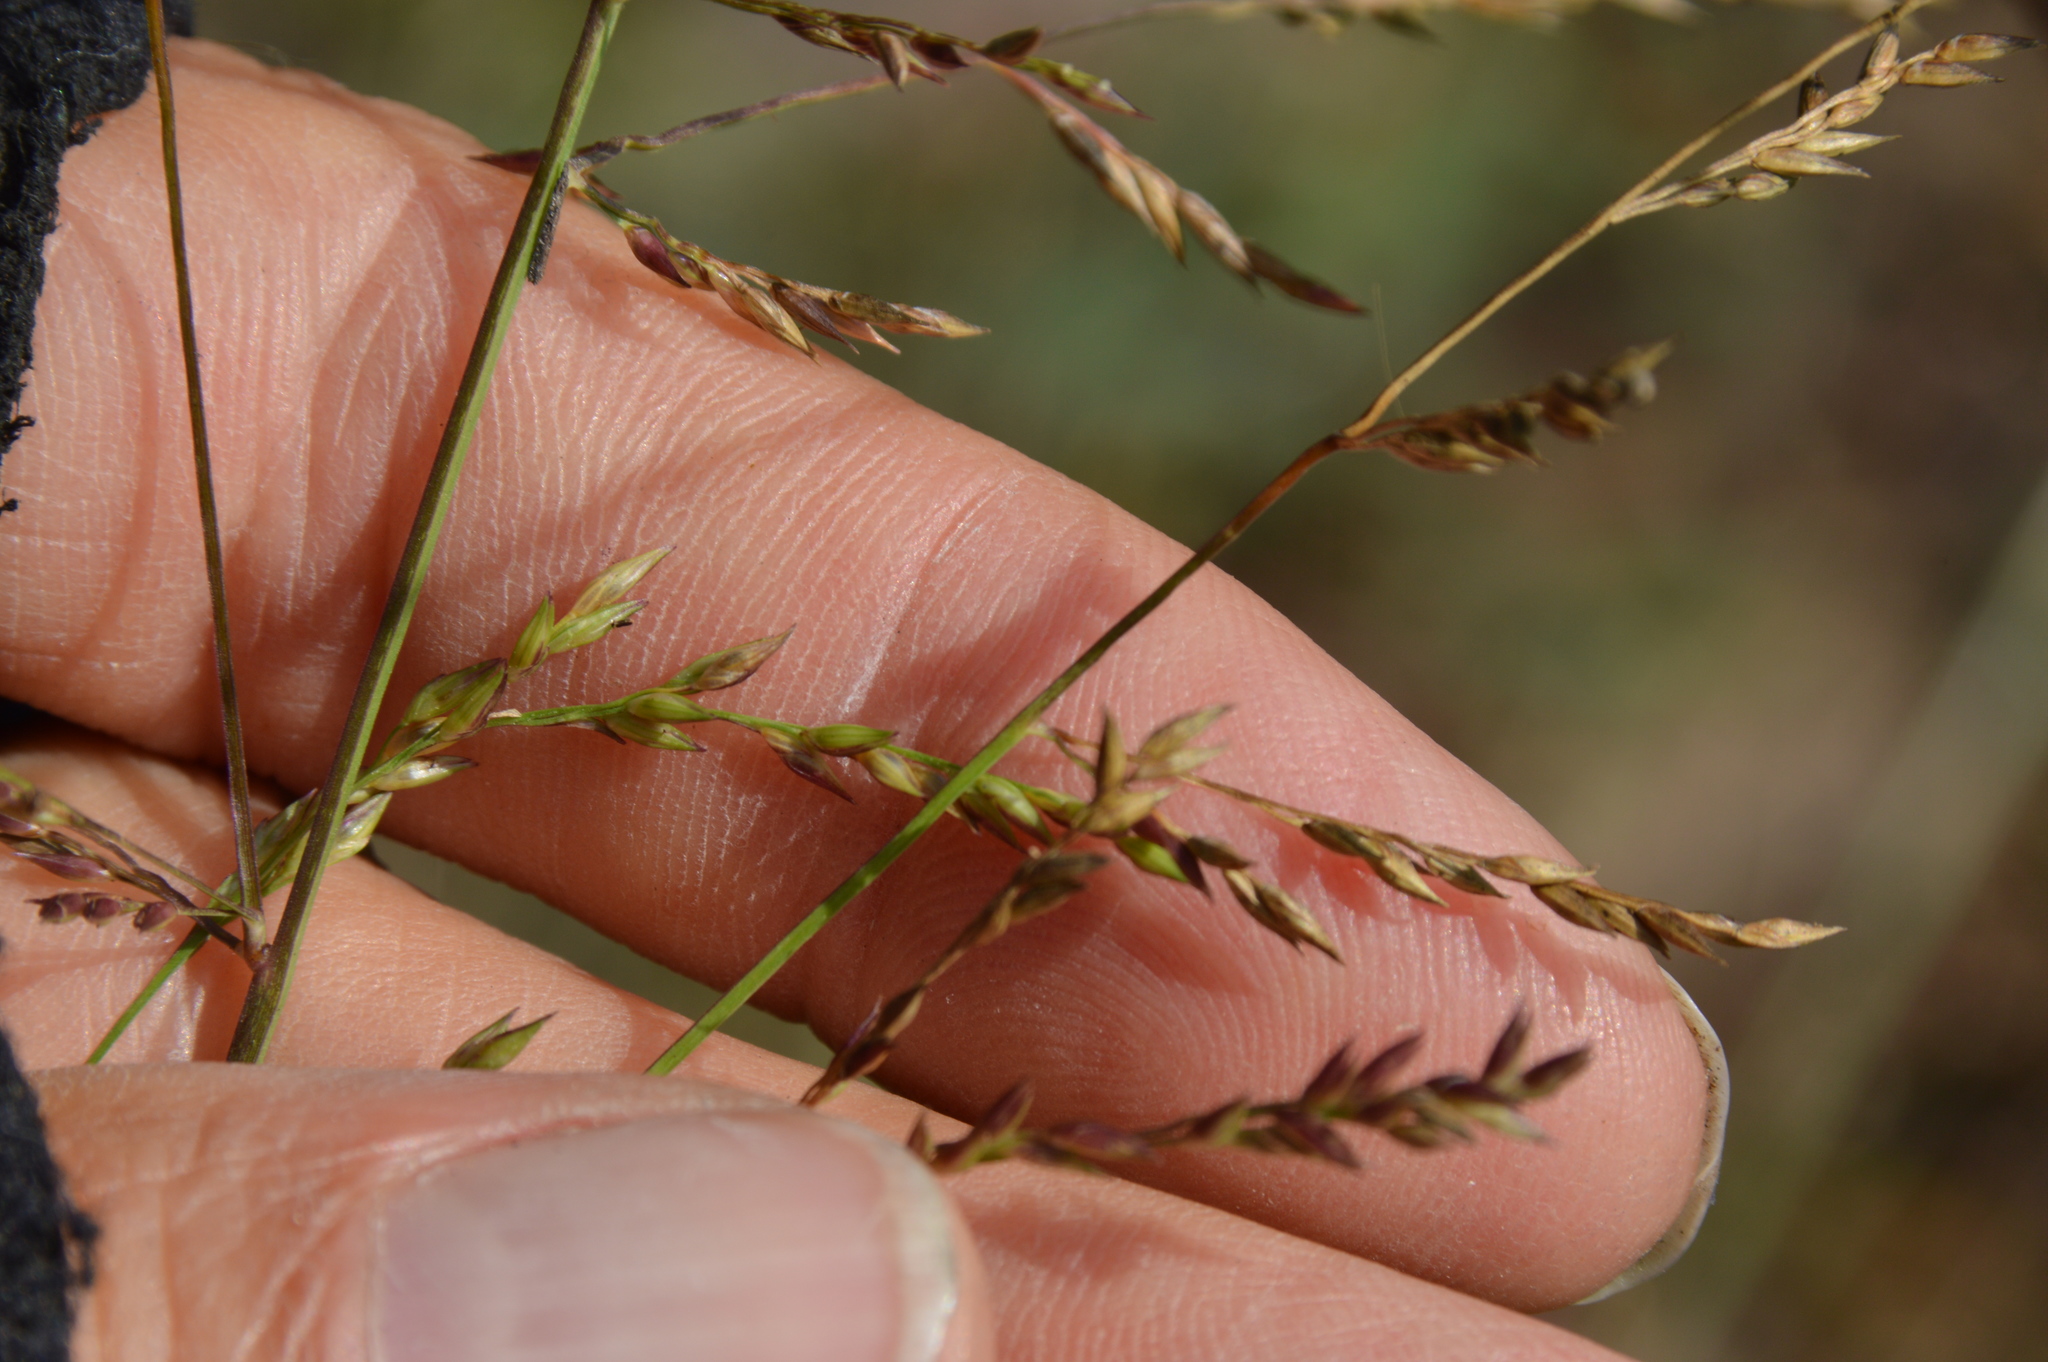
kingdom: Plantae
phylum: Tracheophyta
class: Liliopsida
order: Poales
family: Poaceae
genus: Coleataenia
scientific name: Coleataenia anceps
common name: Beaked panic grass
